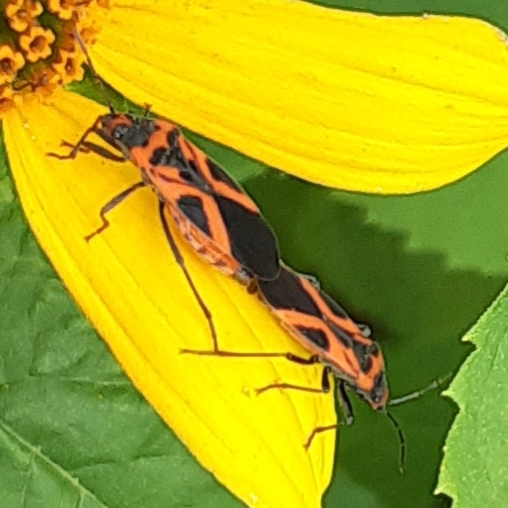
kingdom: Animalia
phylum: Arthropoda
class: Insecta
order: Hemiptera
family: Lygaeidae
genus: Lygaeus
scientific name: Lygaeus turcicus
